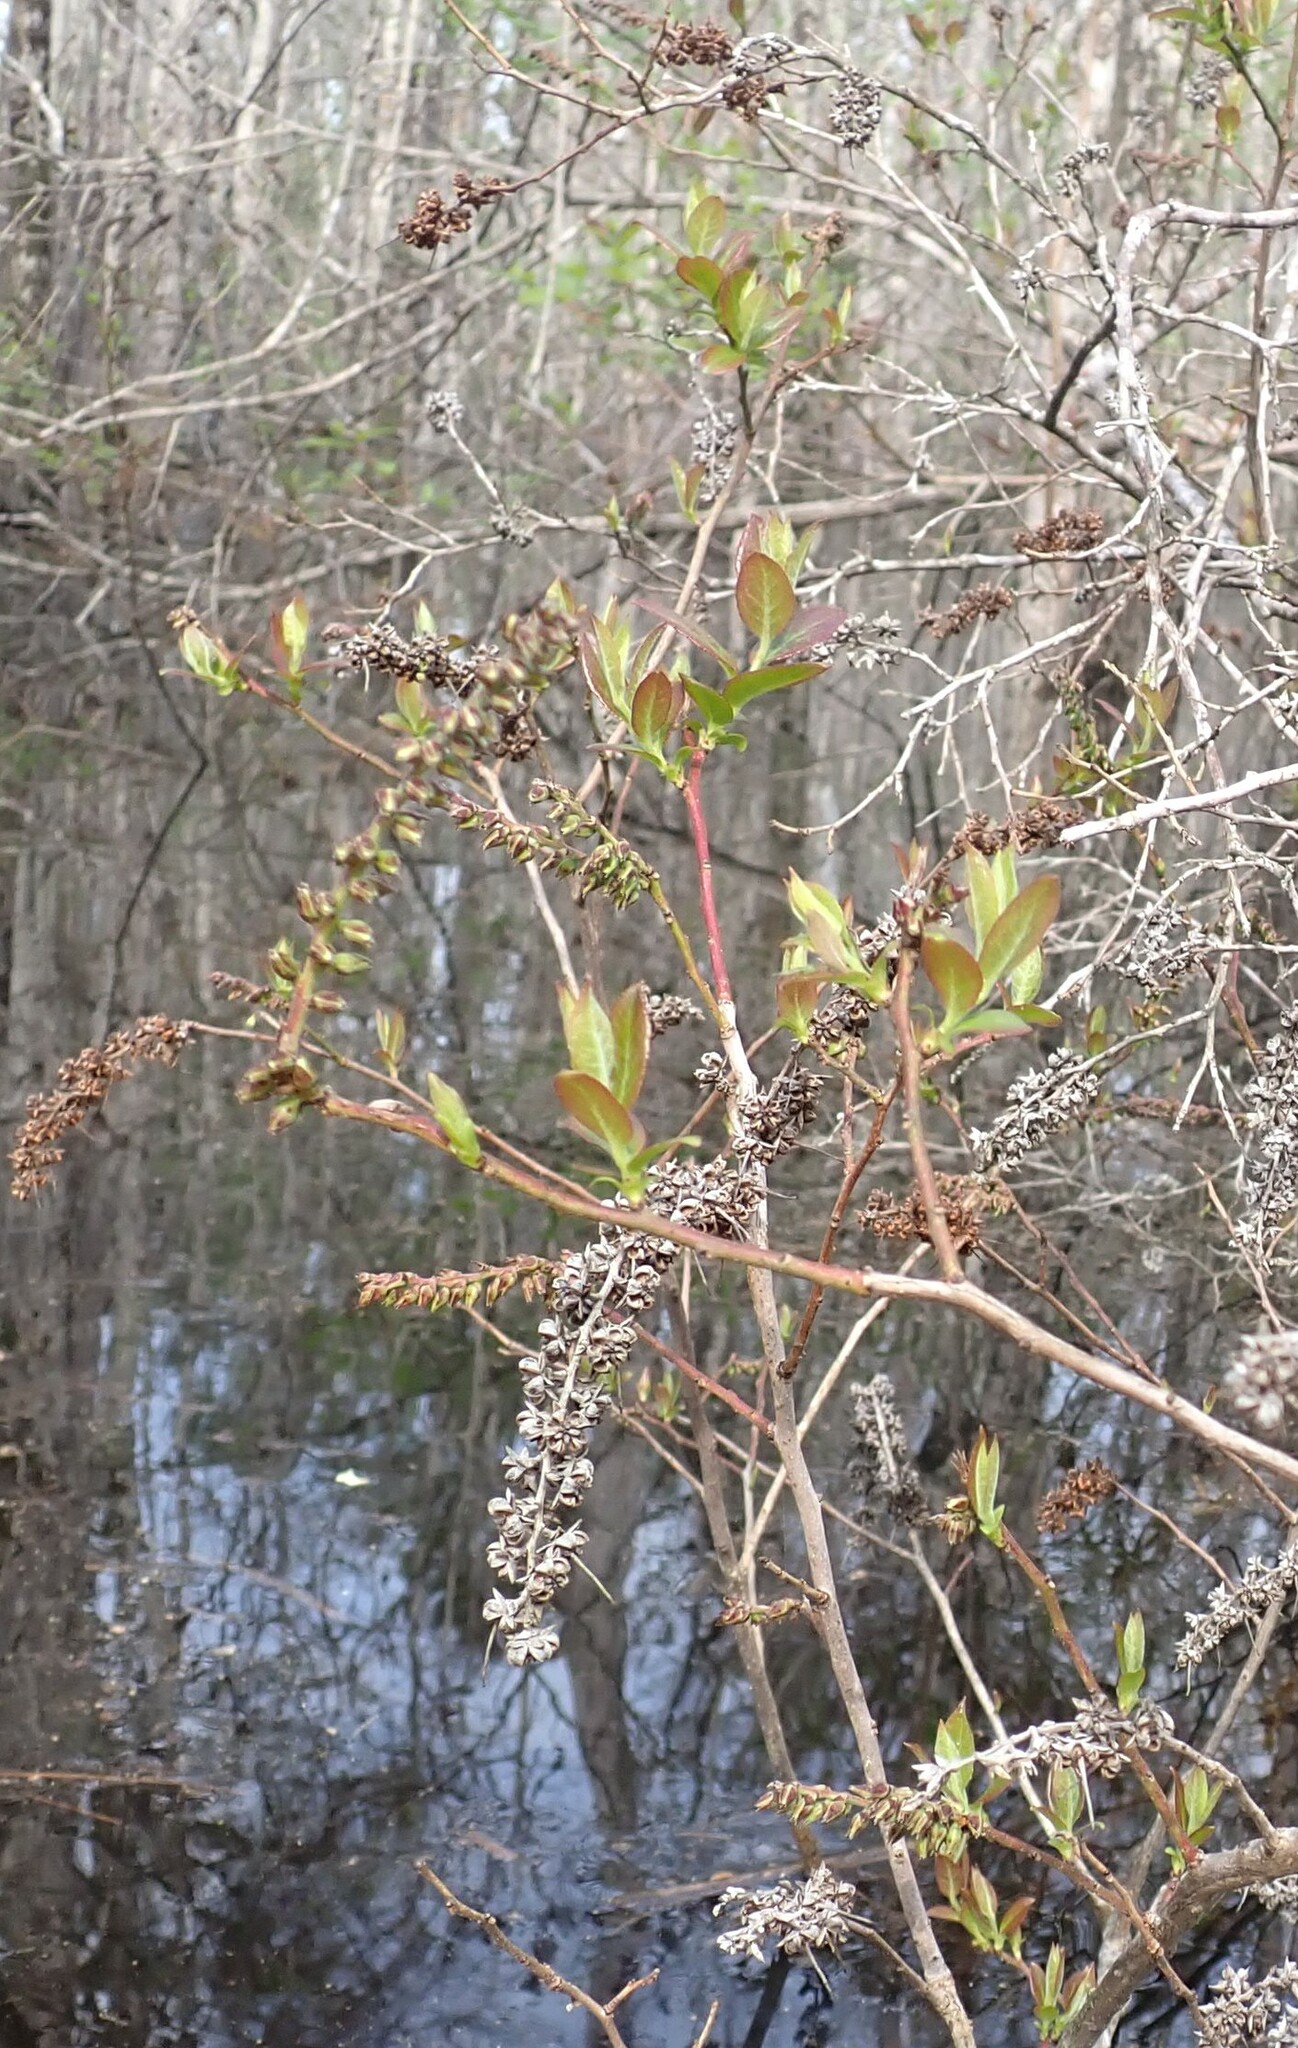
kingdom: Plantae
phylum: Tracheophyta
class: Magnoliopsida
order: Ericales
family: Ericaceae
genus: Eubotrys
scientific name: Eubotrys racemosa
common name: Fetterbush
